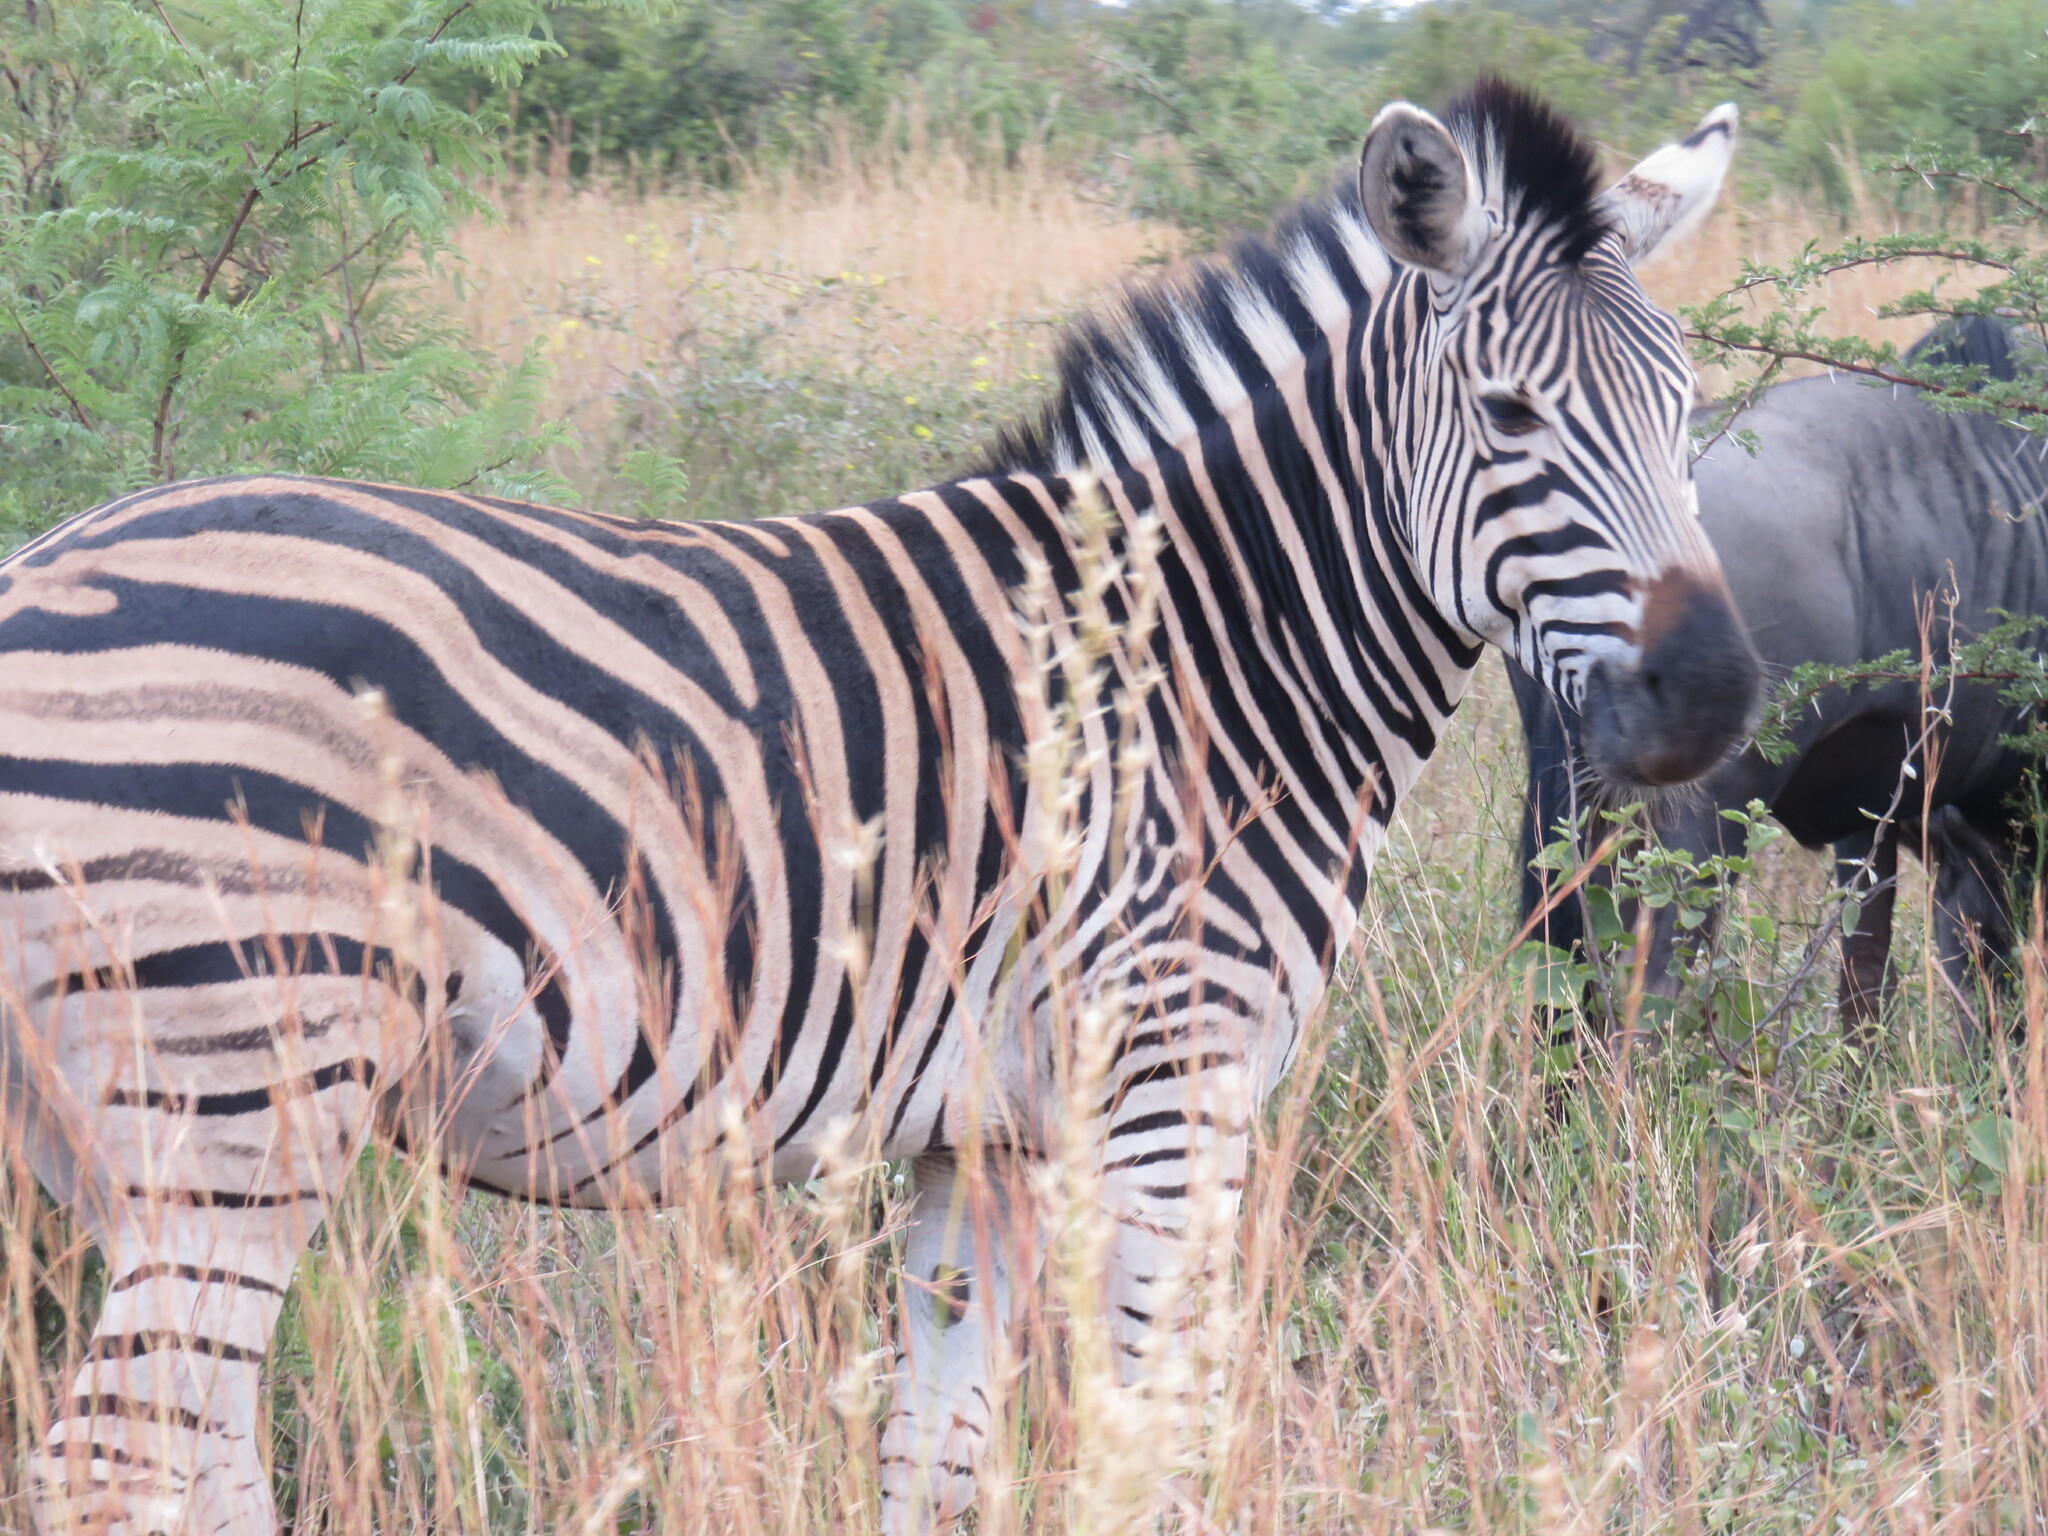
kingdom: Animalia
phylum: Chordata
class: Mammalia
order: Perissodactyla
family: Equidae
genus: Equus
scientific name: Equus quagga
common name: Plains zebra
